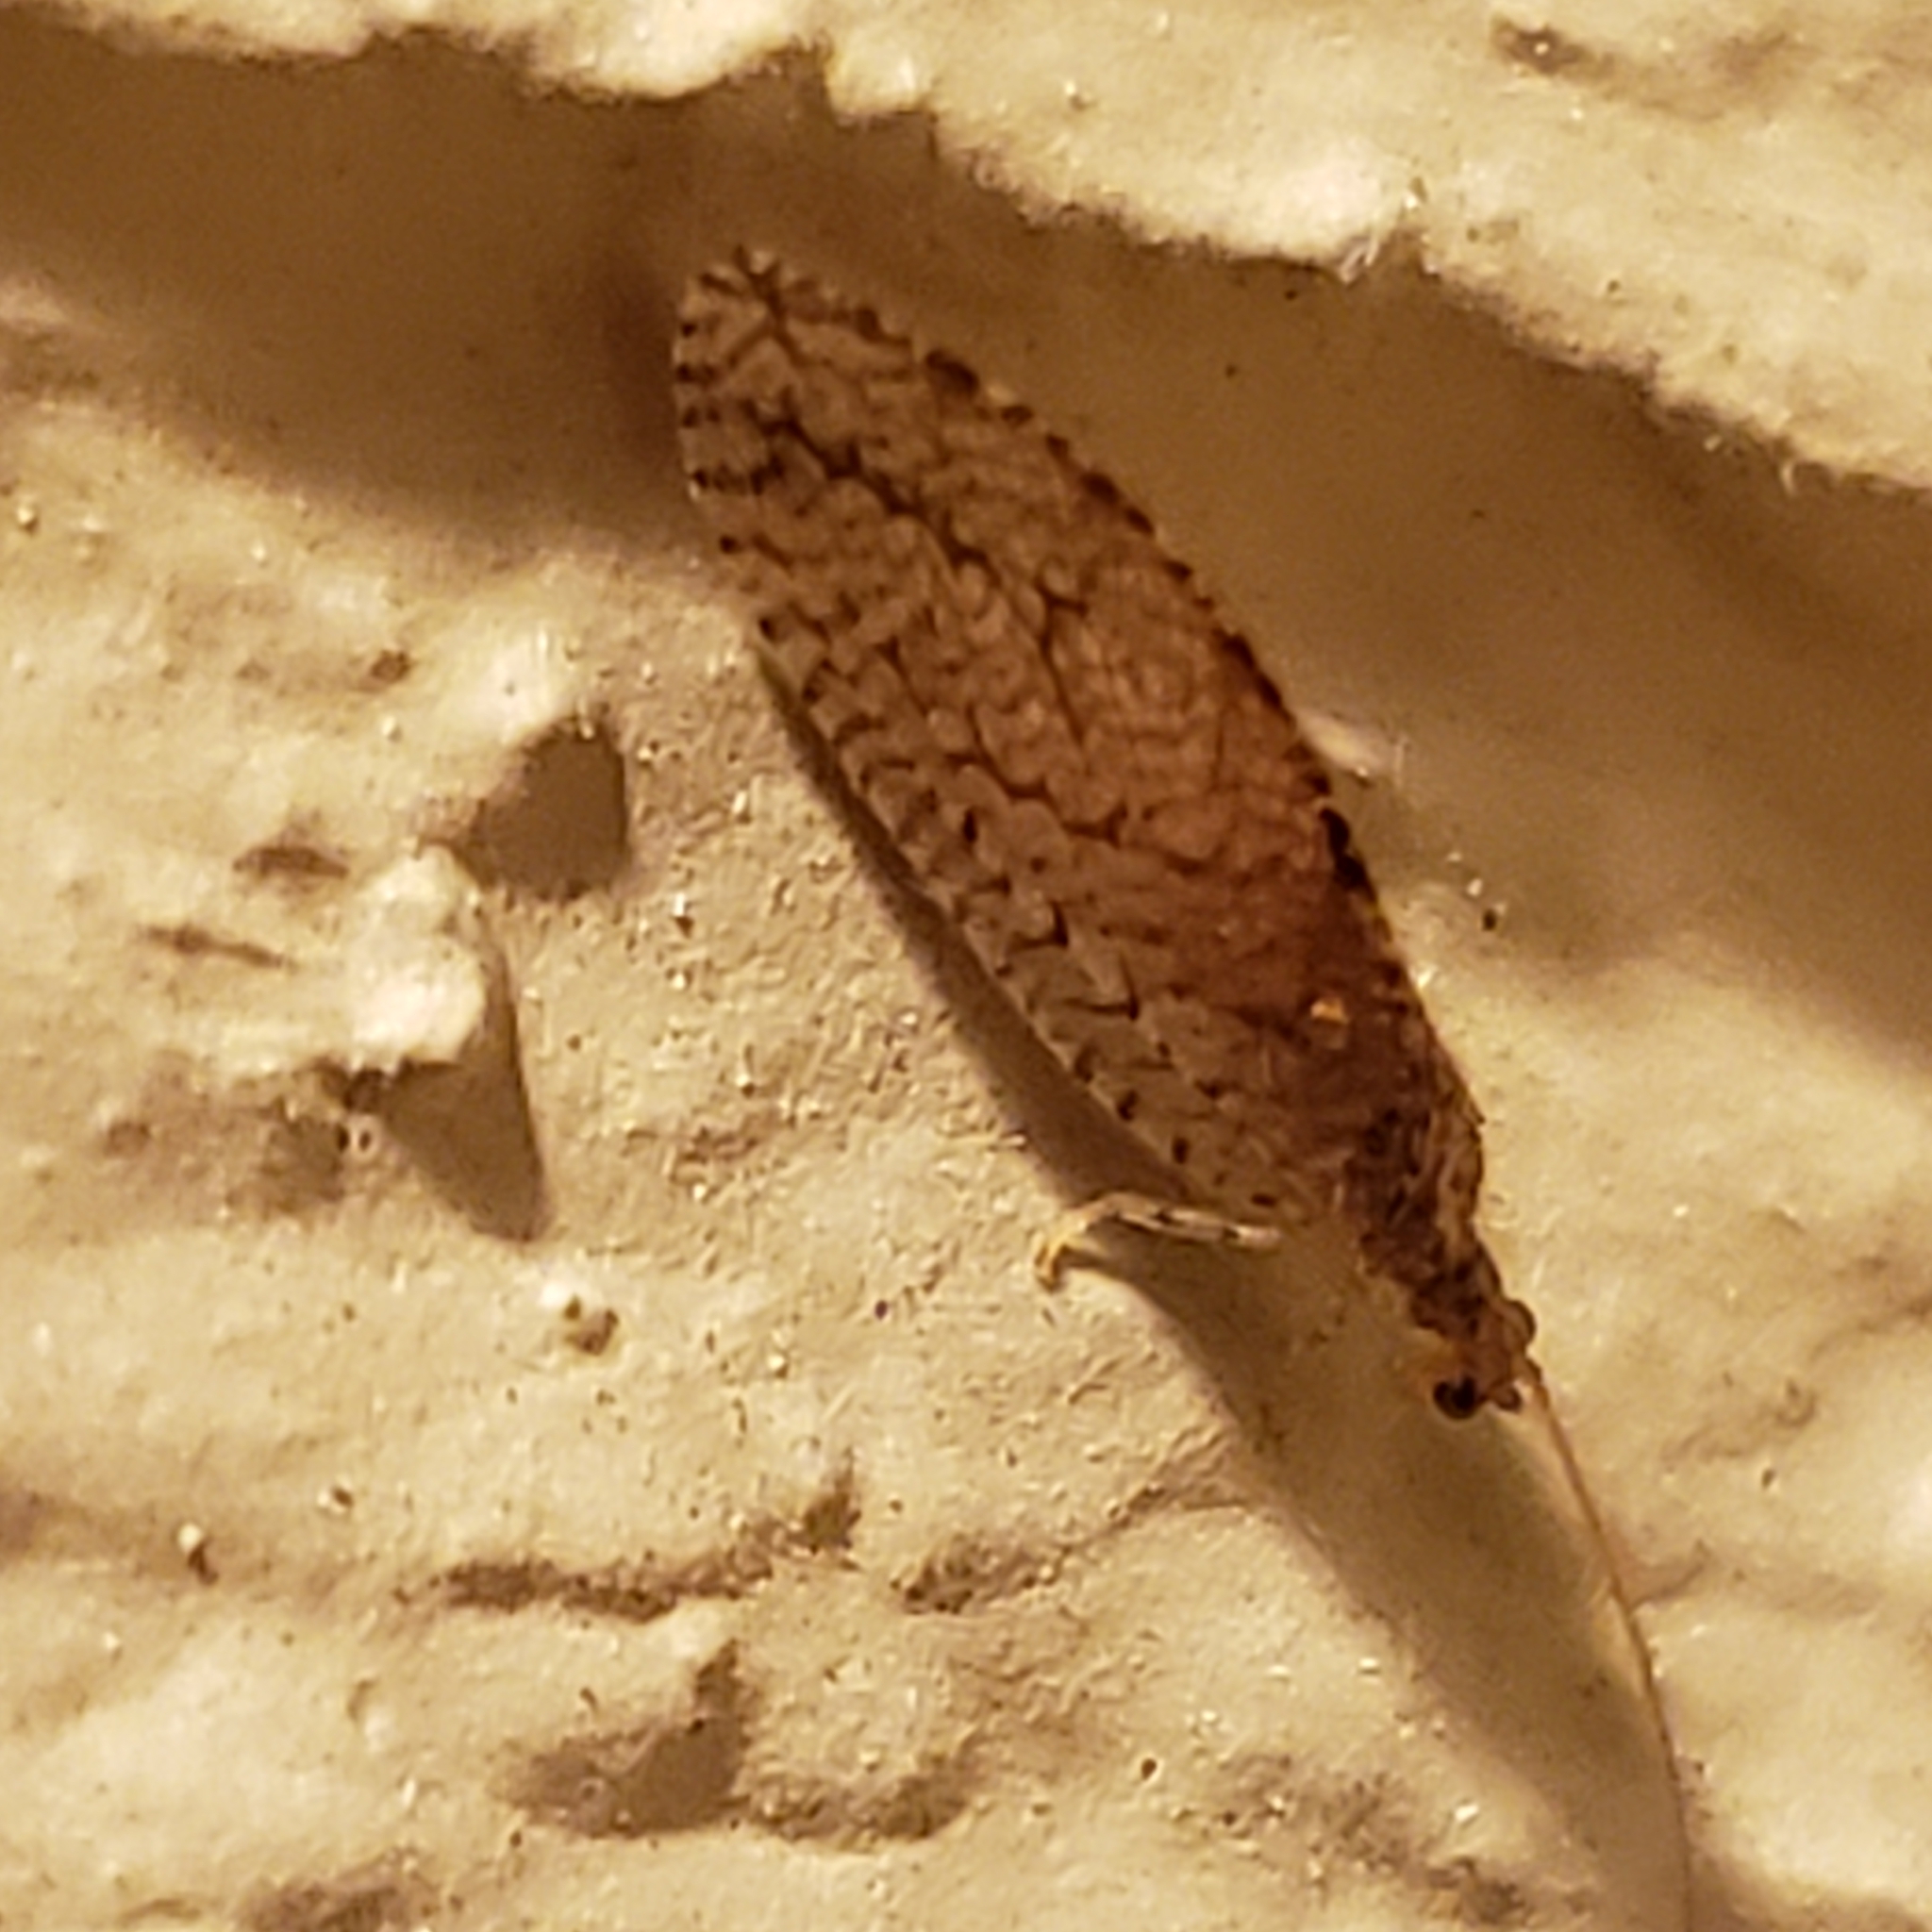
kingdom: Animalia
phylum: Arthropoda
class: Insecta
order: Neuroptera
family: Hemerobiidae
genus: Micromus
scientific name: Micromus posticus
